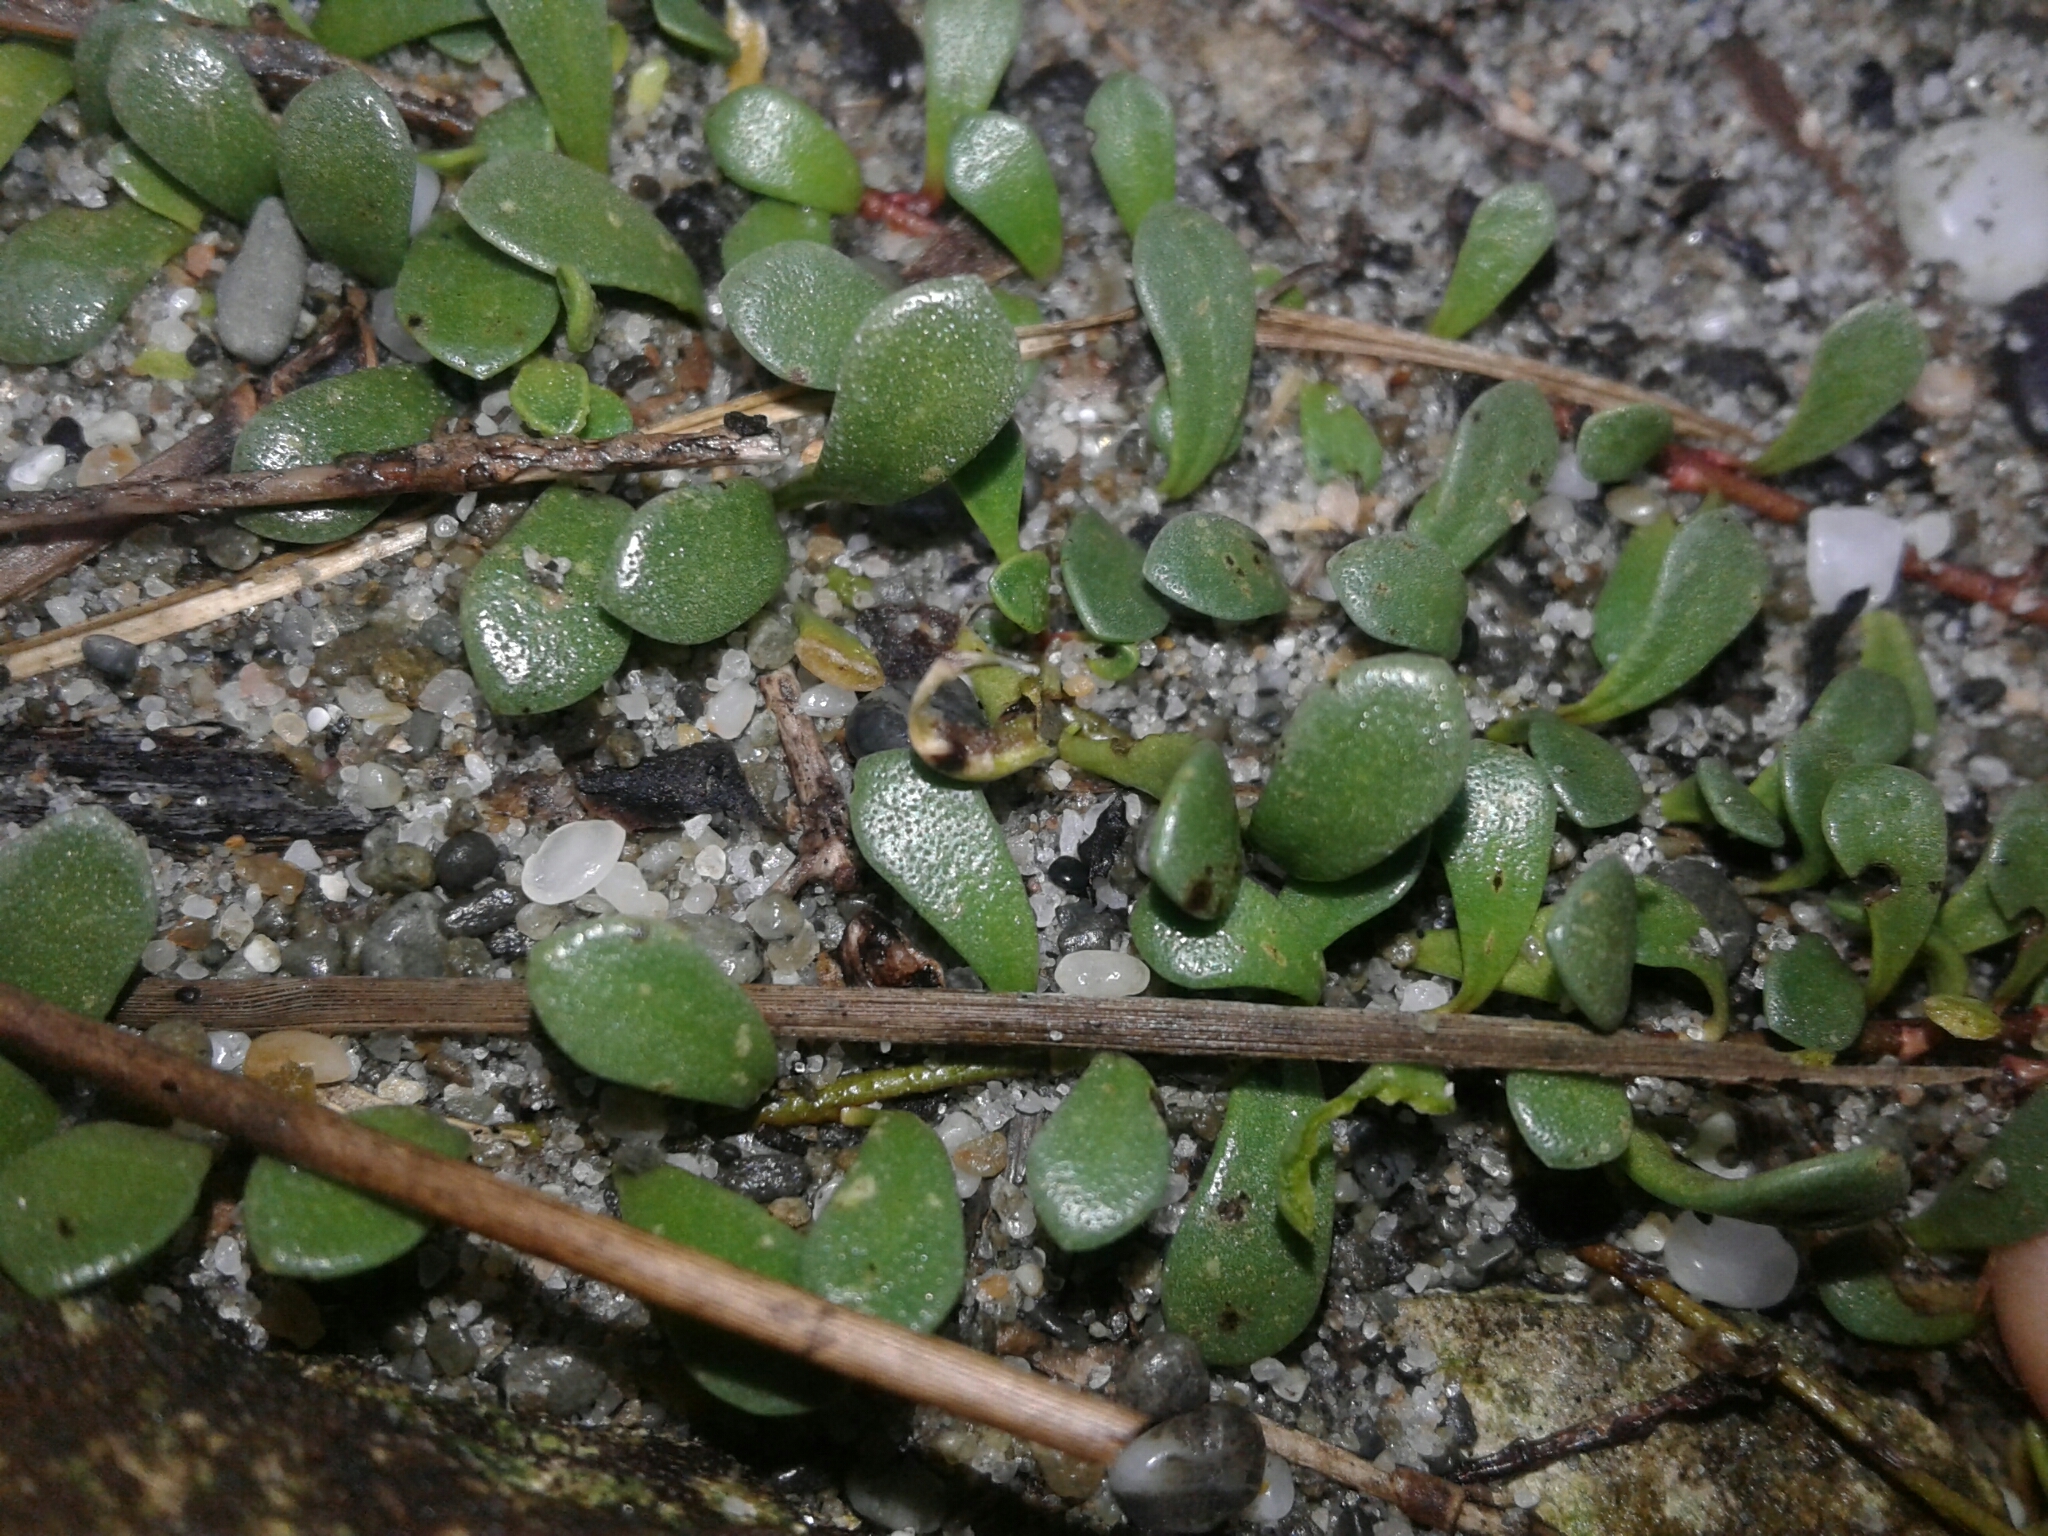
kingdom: Plantae
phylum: Tracheophyta
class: Magnoliopsida
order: Ericales
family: Primulaceae
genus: Samolus
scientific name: Samolus repens
